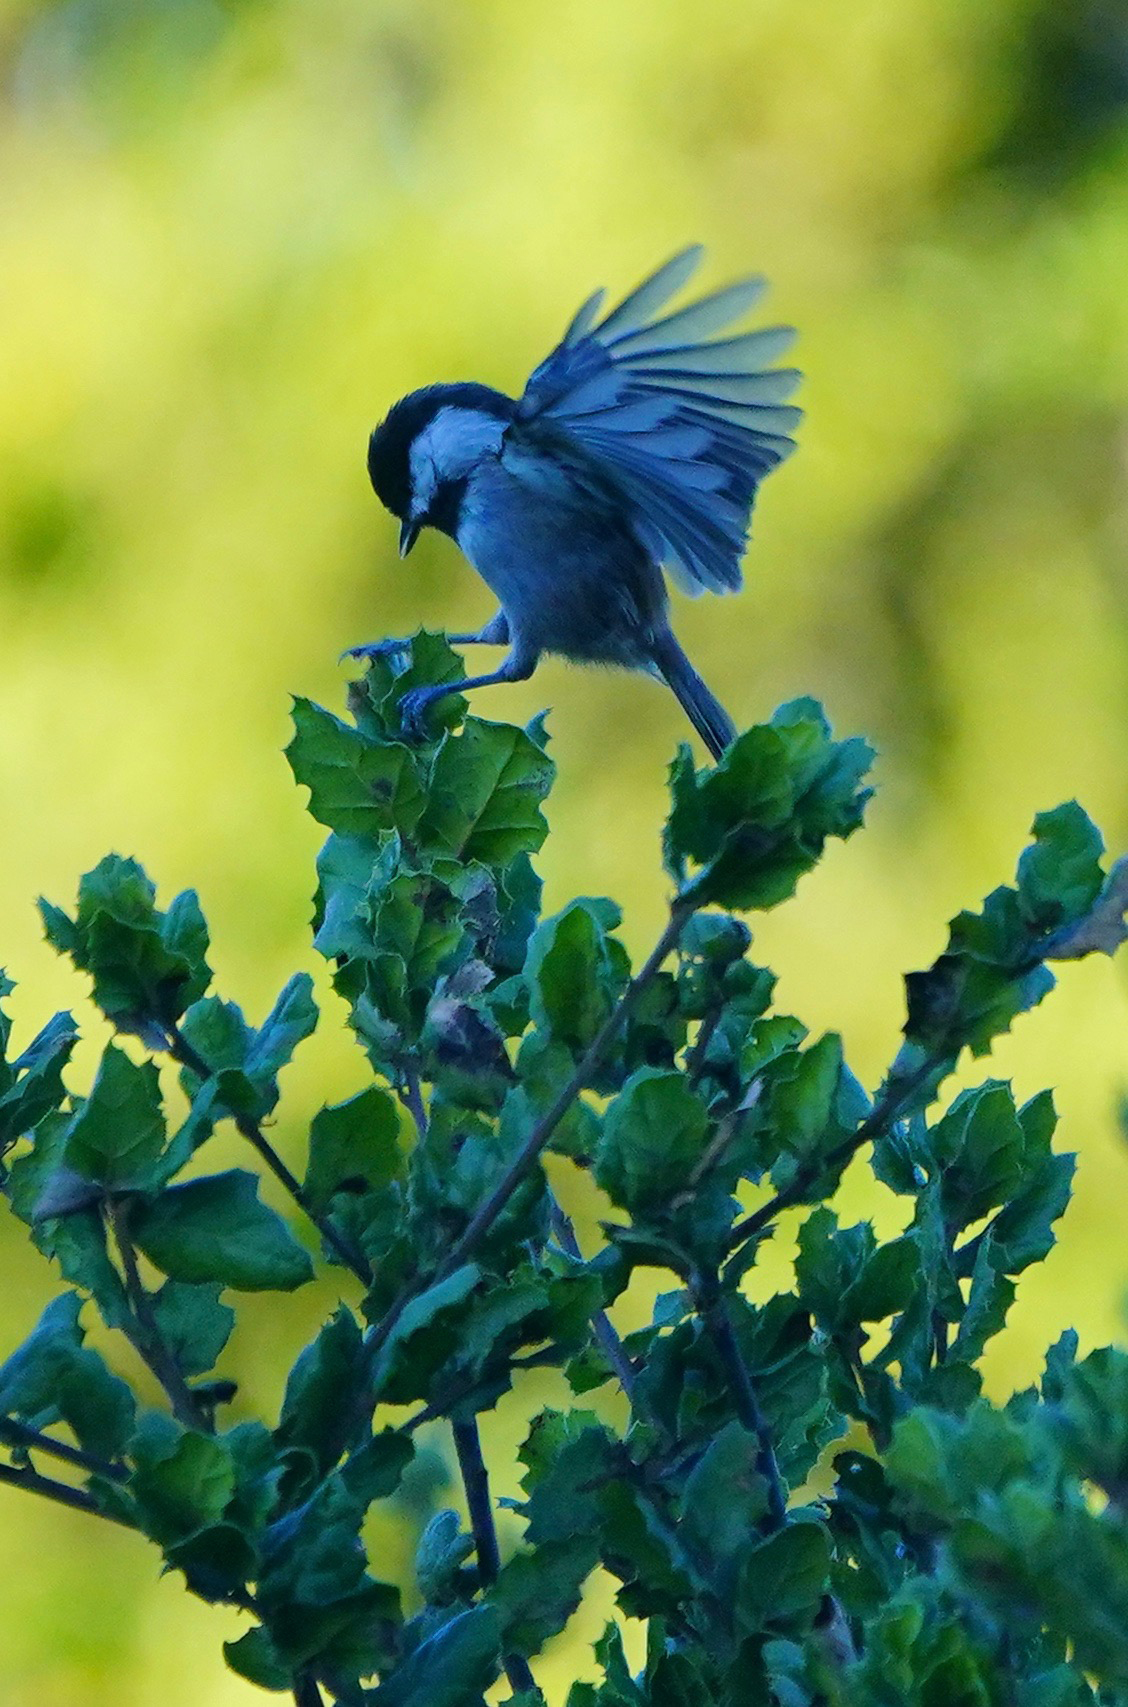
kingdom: Animalia
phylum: Chordata
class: Aves
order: Passeriformes
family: Paridae
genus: Poecile
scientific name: Poecile rufescens
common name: Chestnut-backed chickadee
